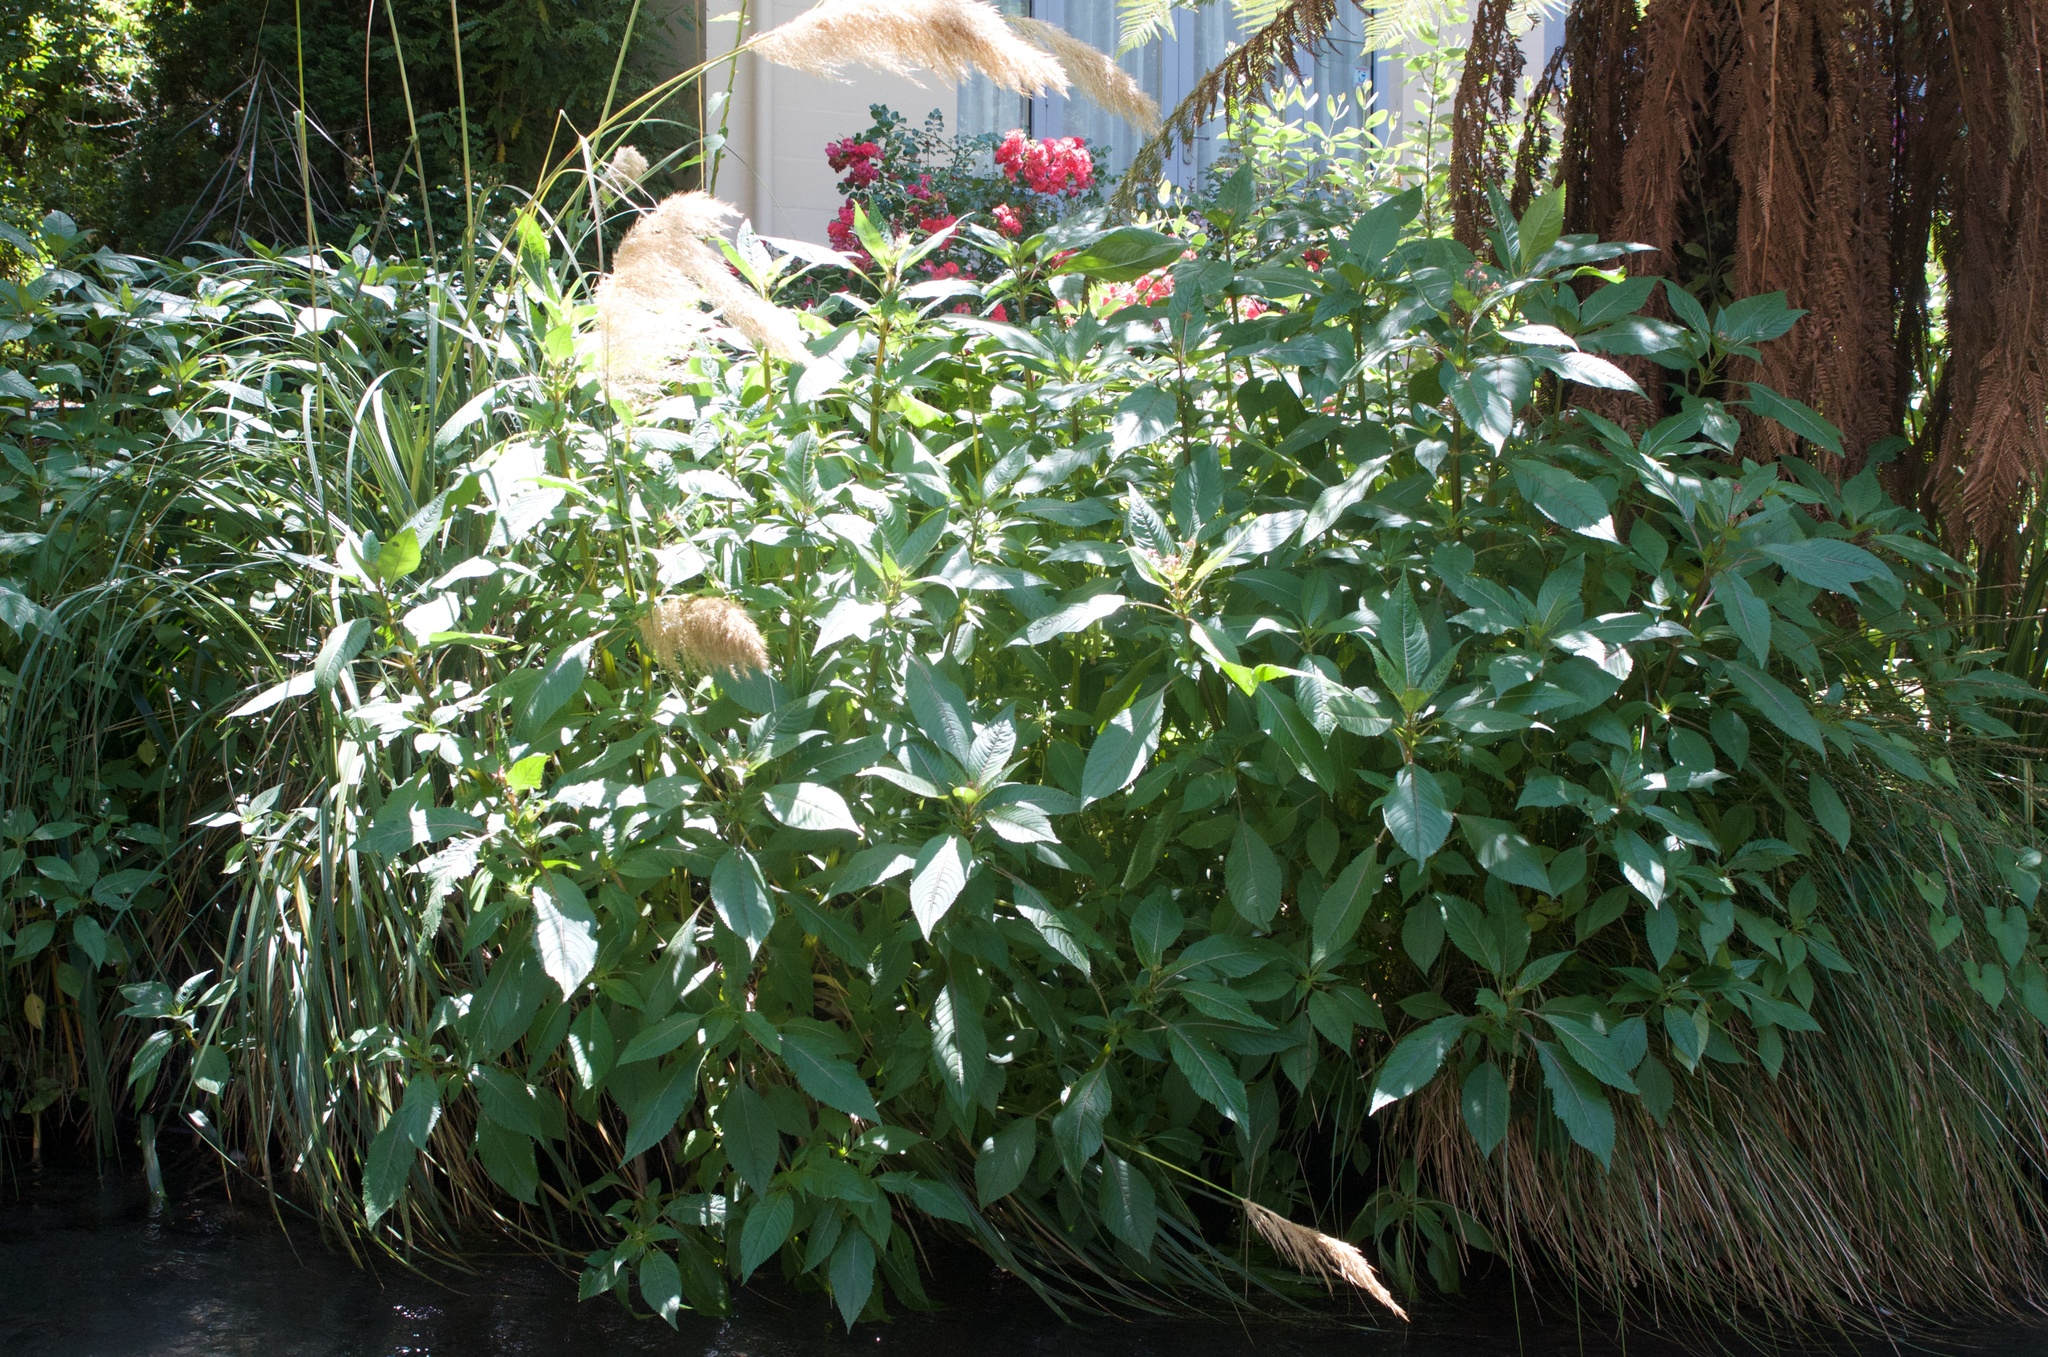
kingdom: Plantae
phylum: Tracheophyta
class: Magnoliopsida
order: Ericales
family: Balsaminaceae
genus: Impatiens
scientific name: Impatiens glandulifera
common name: Himalayan balsam
